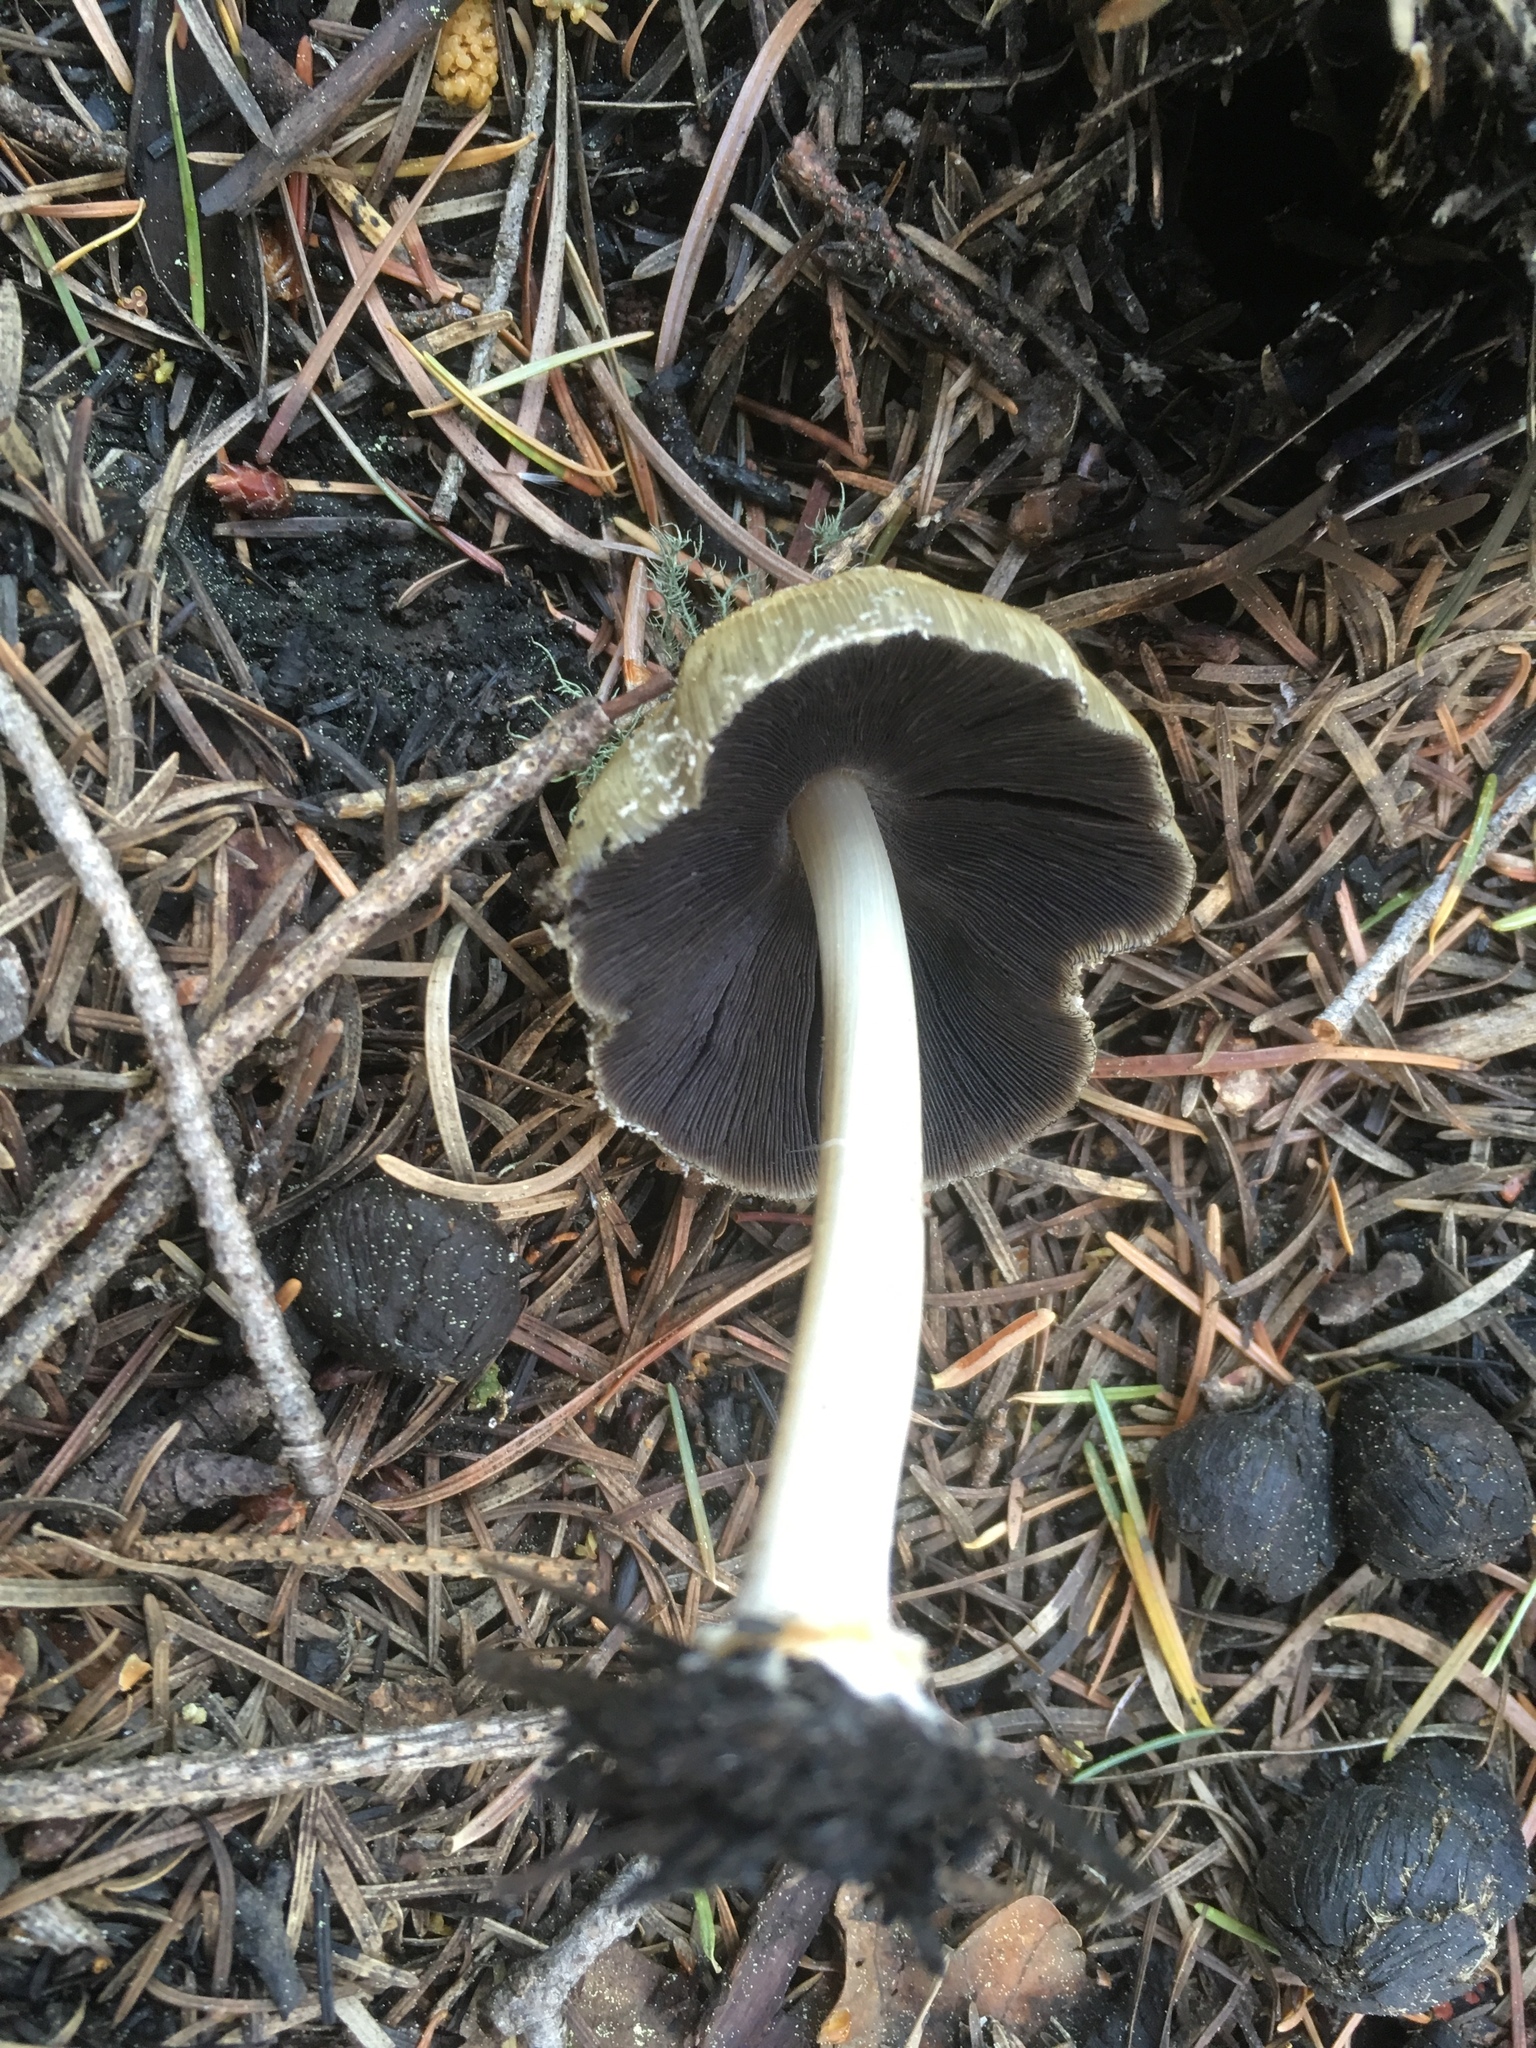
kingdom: Fungi
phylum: Basidiomycota
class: Agaricomycetes
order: Agaricales
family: Psathyrellaceae
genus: Coprinellus
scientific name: Coprinellus bipellis
